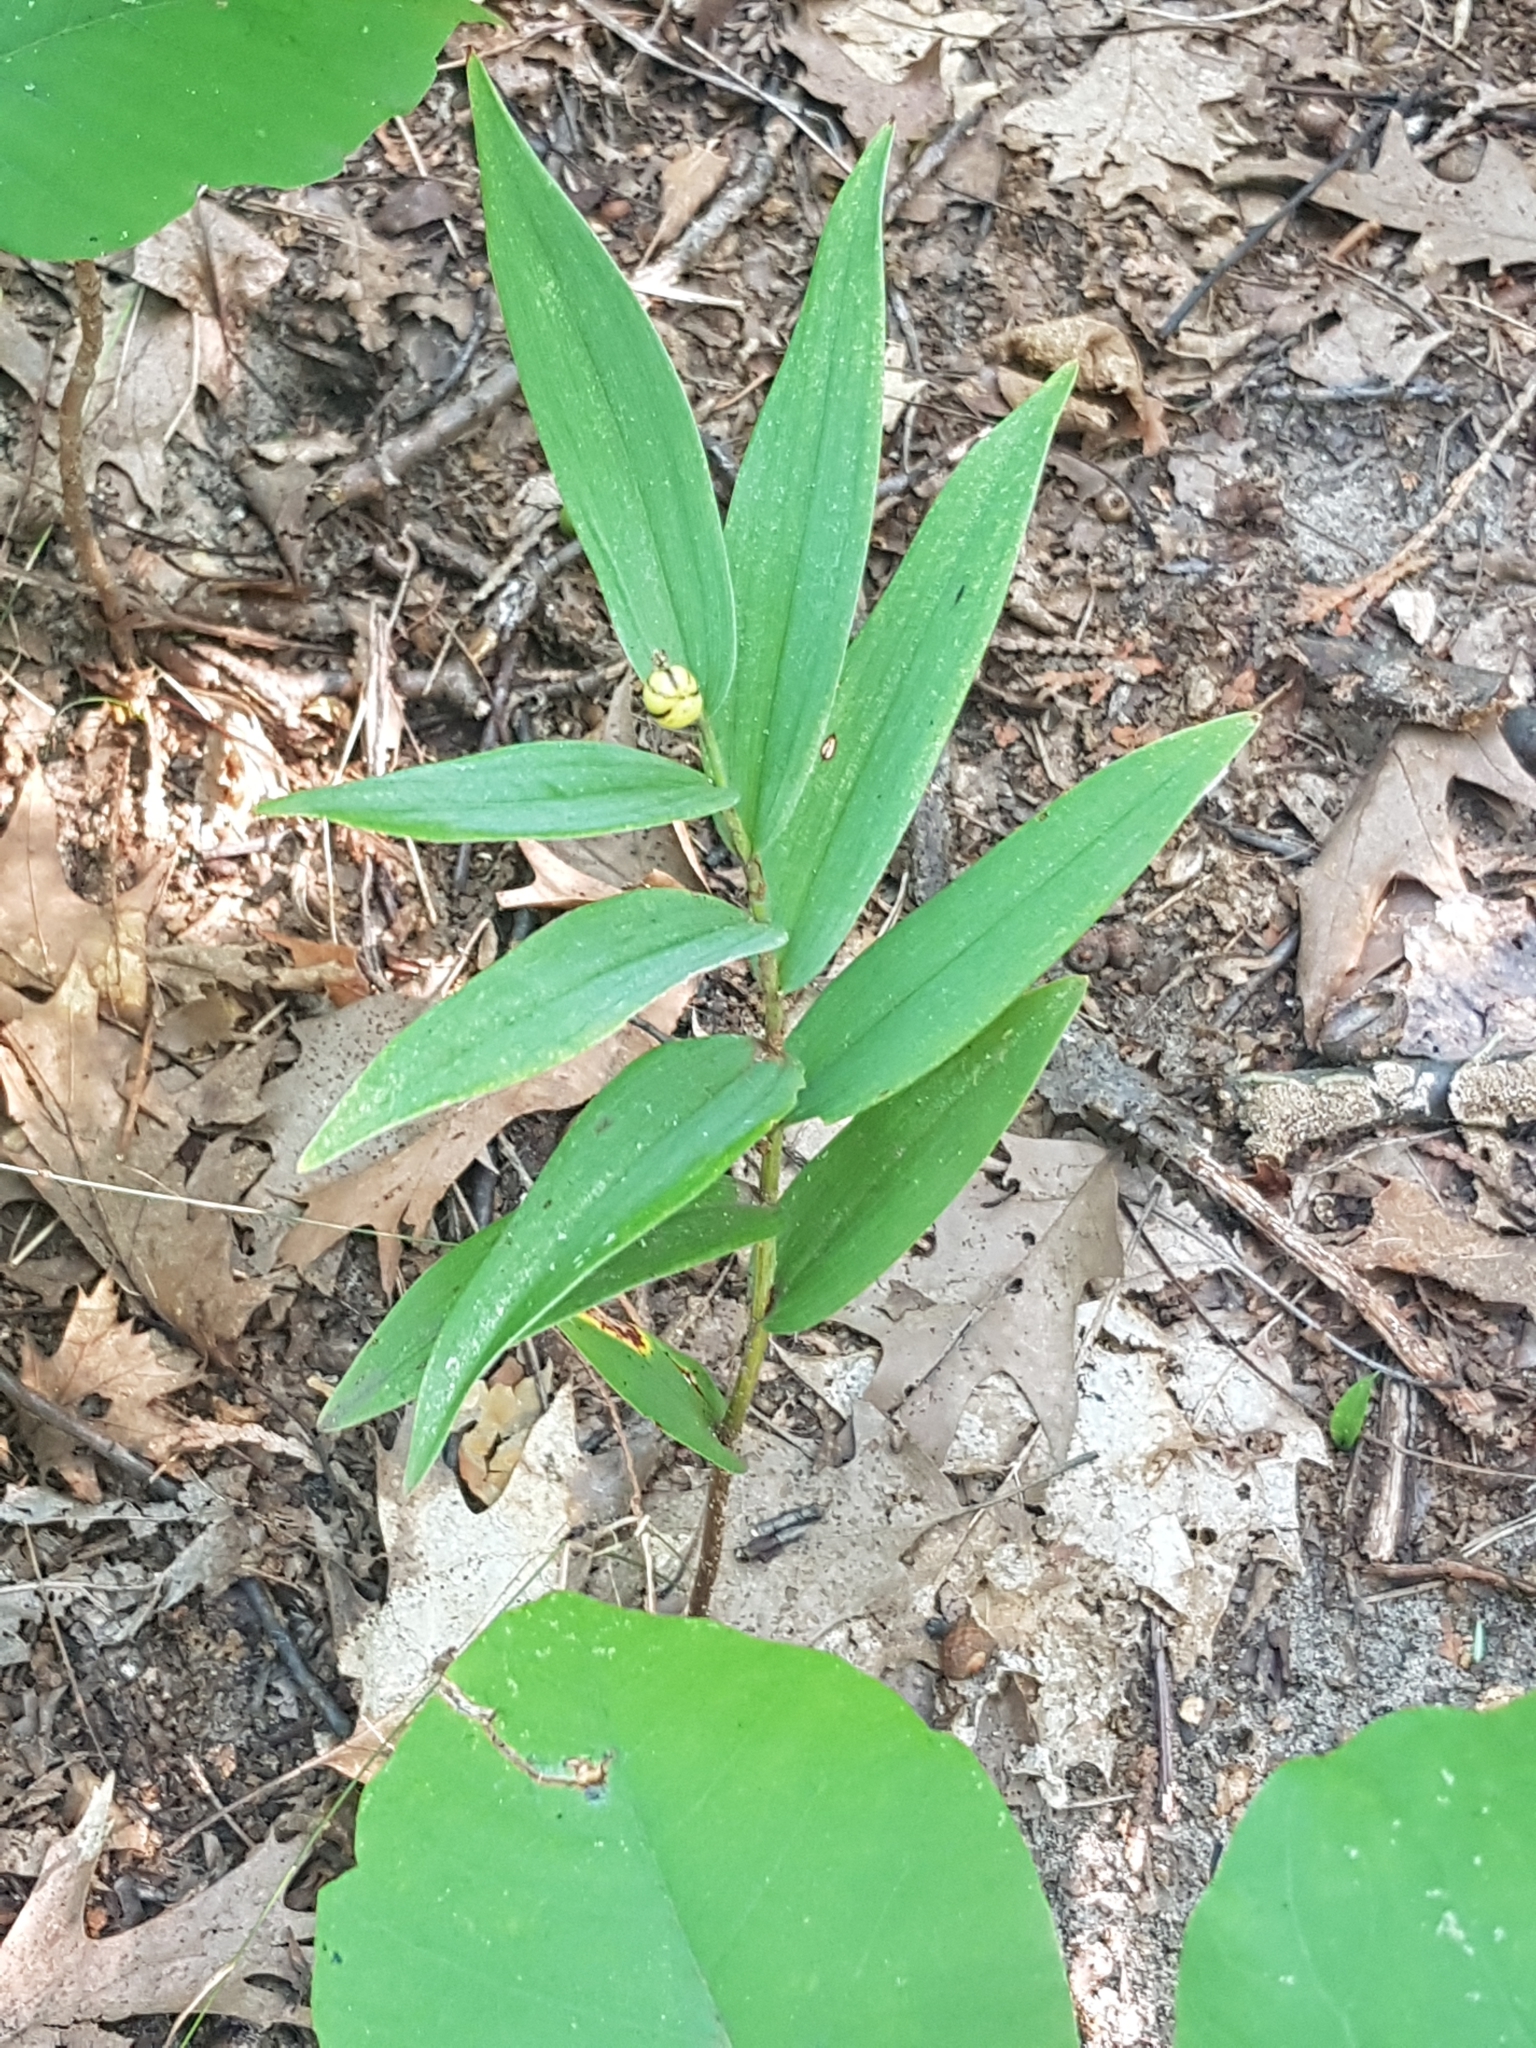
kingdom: Plantae
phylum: Tracheophyta
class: Liliopsida
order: Asparagales
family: Asparagaceae
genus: Maianthemum
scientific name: Maianthemum stellatum
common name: Little false solomon's seal
